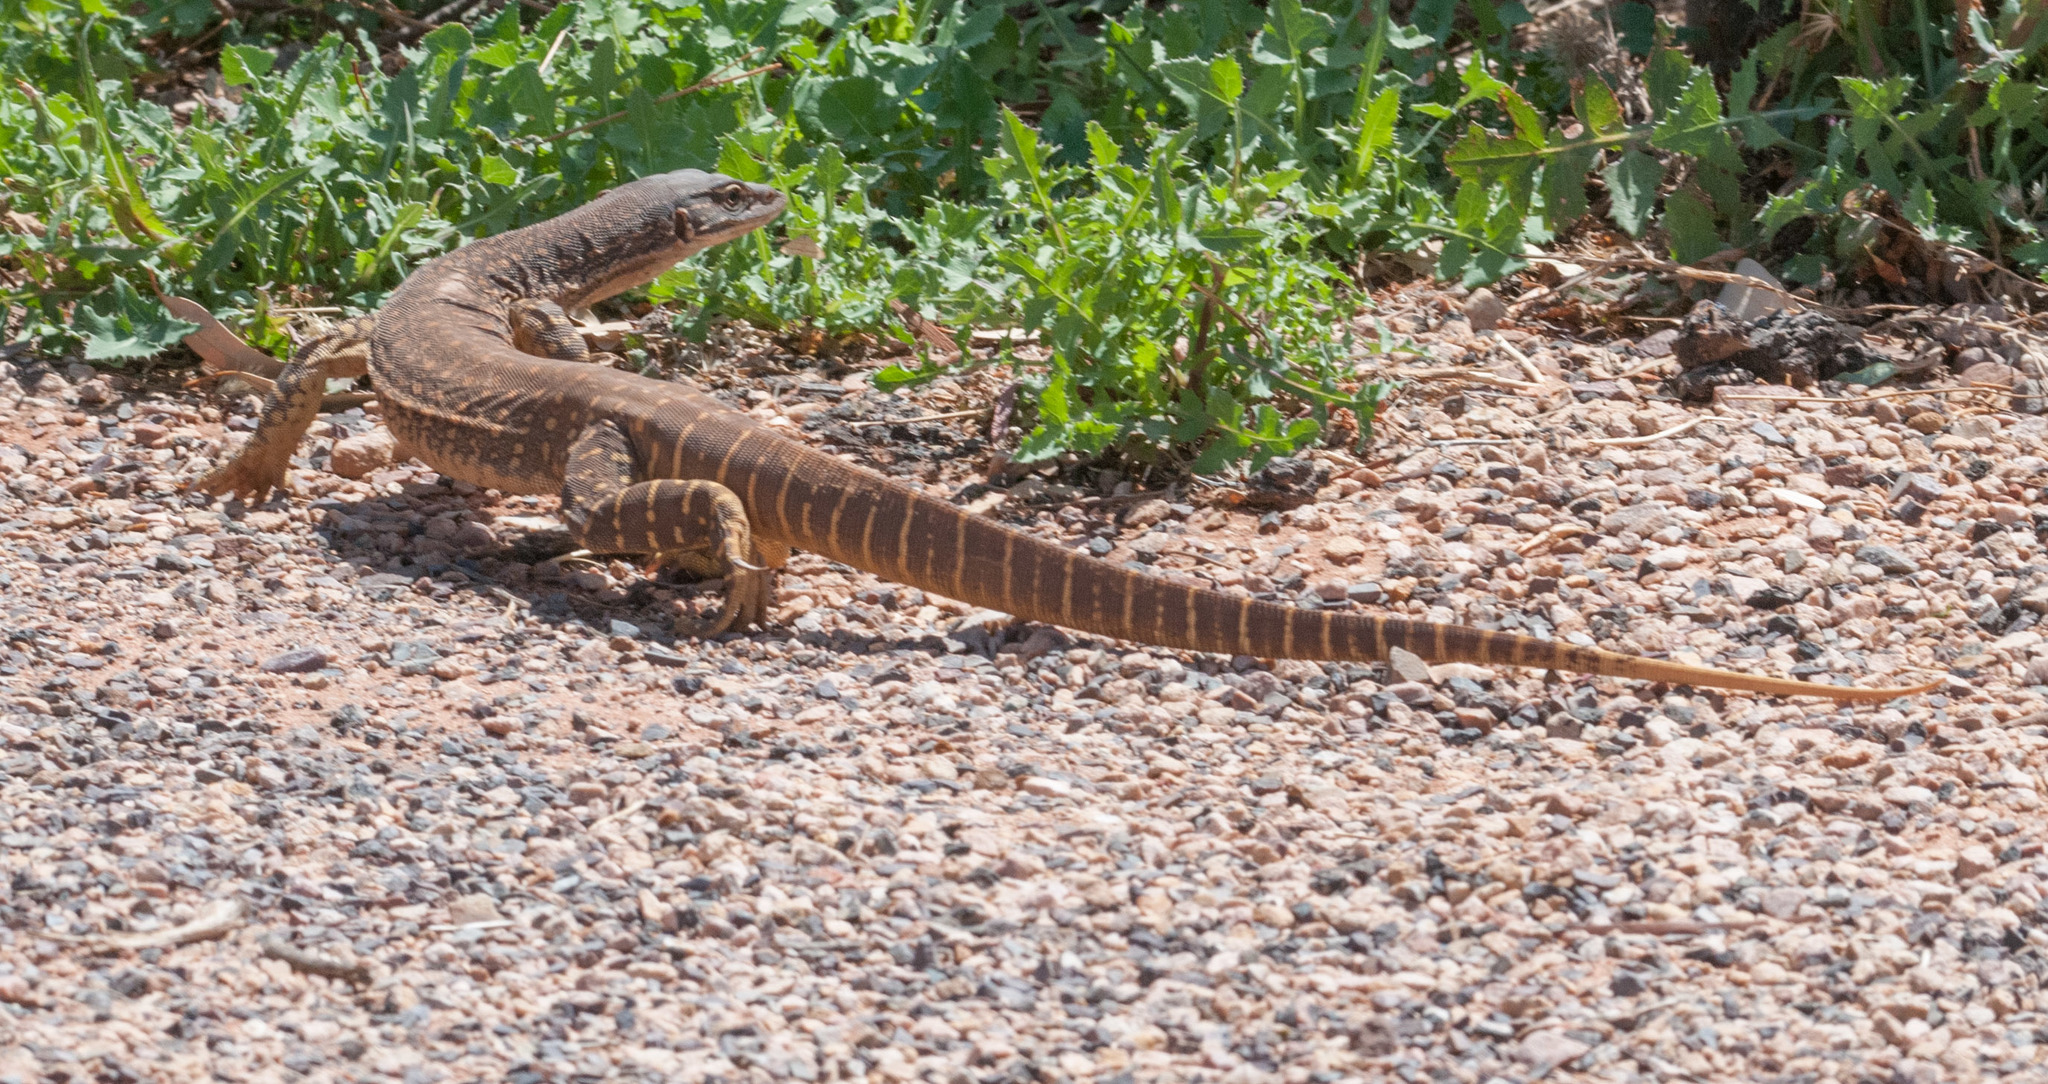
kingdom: Animalia
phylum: Chordata
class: Squamata
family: Varanidae
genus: Varanus
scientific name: Varanus gouldii
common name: Gould's goanna
